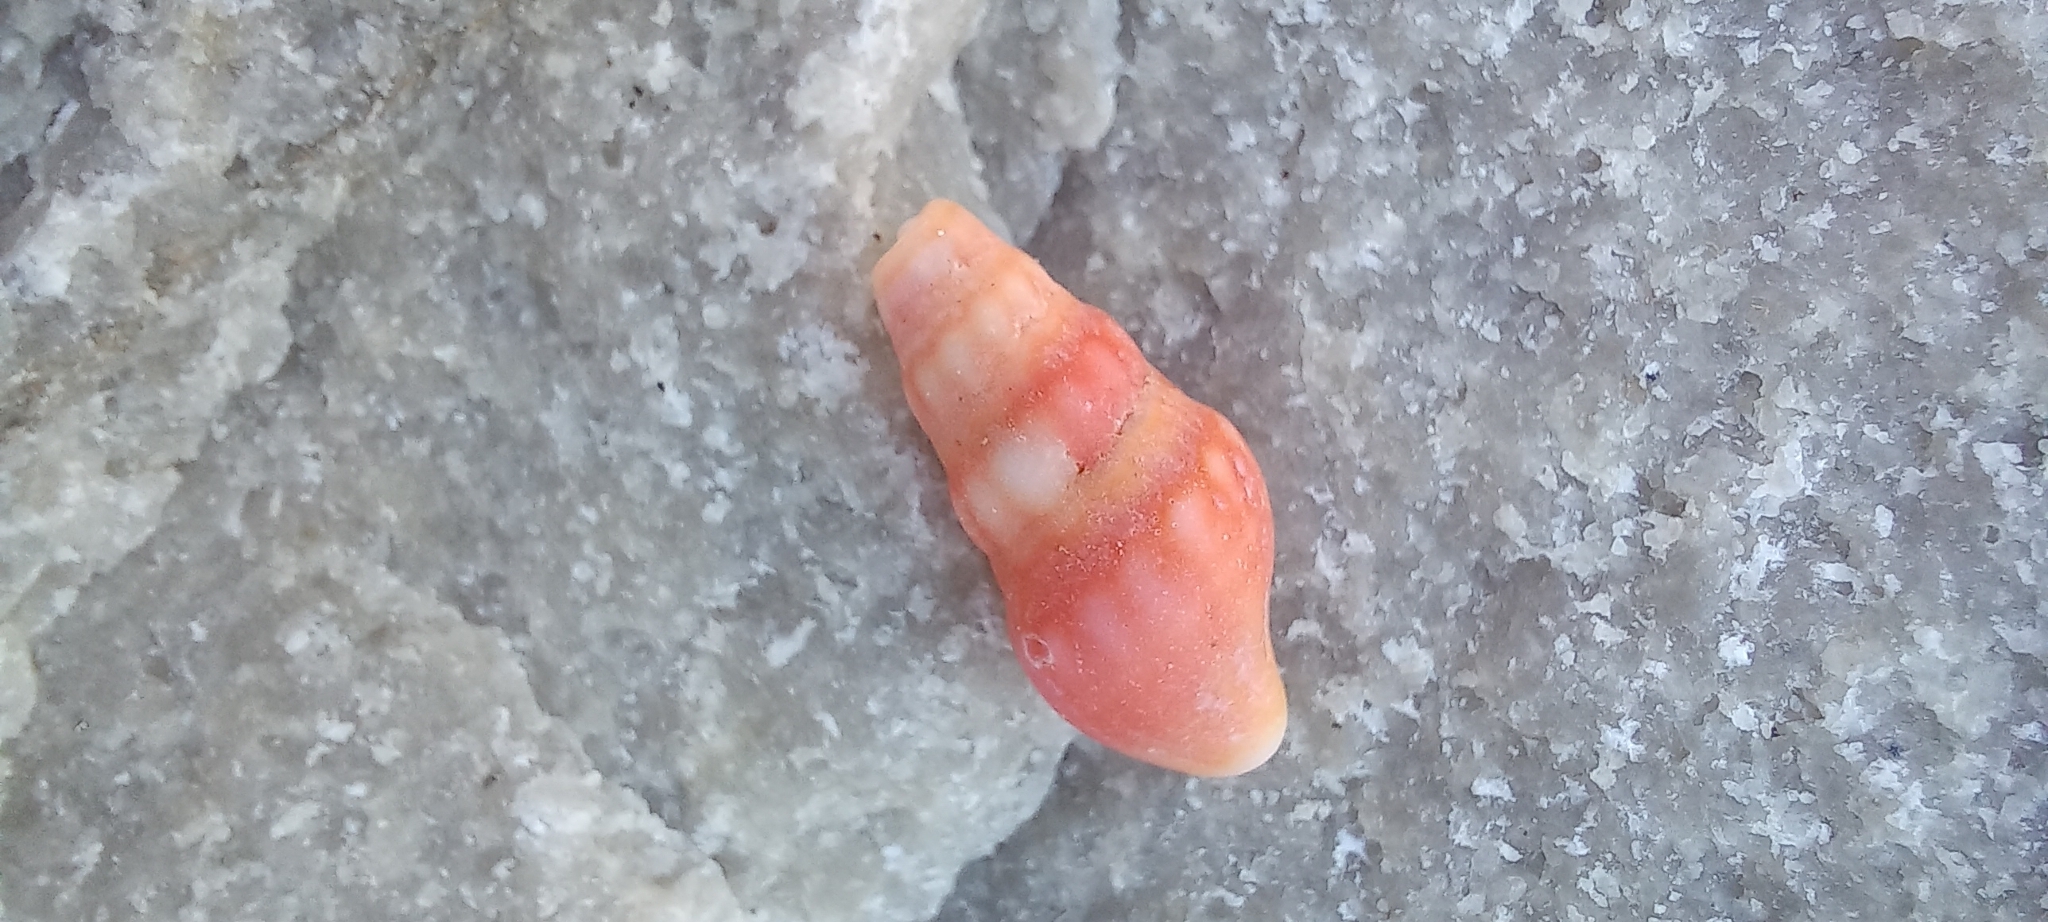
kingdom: Animalia
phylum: Mollusca
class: Gastropoda
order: Neogastropoda
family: Clavatulidae
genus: Clionella
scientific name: Clionella rosaria
